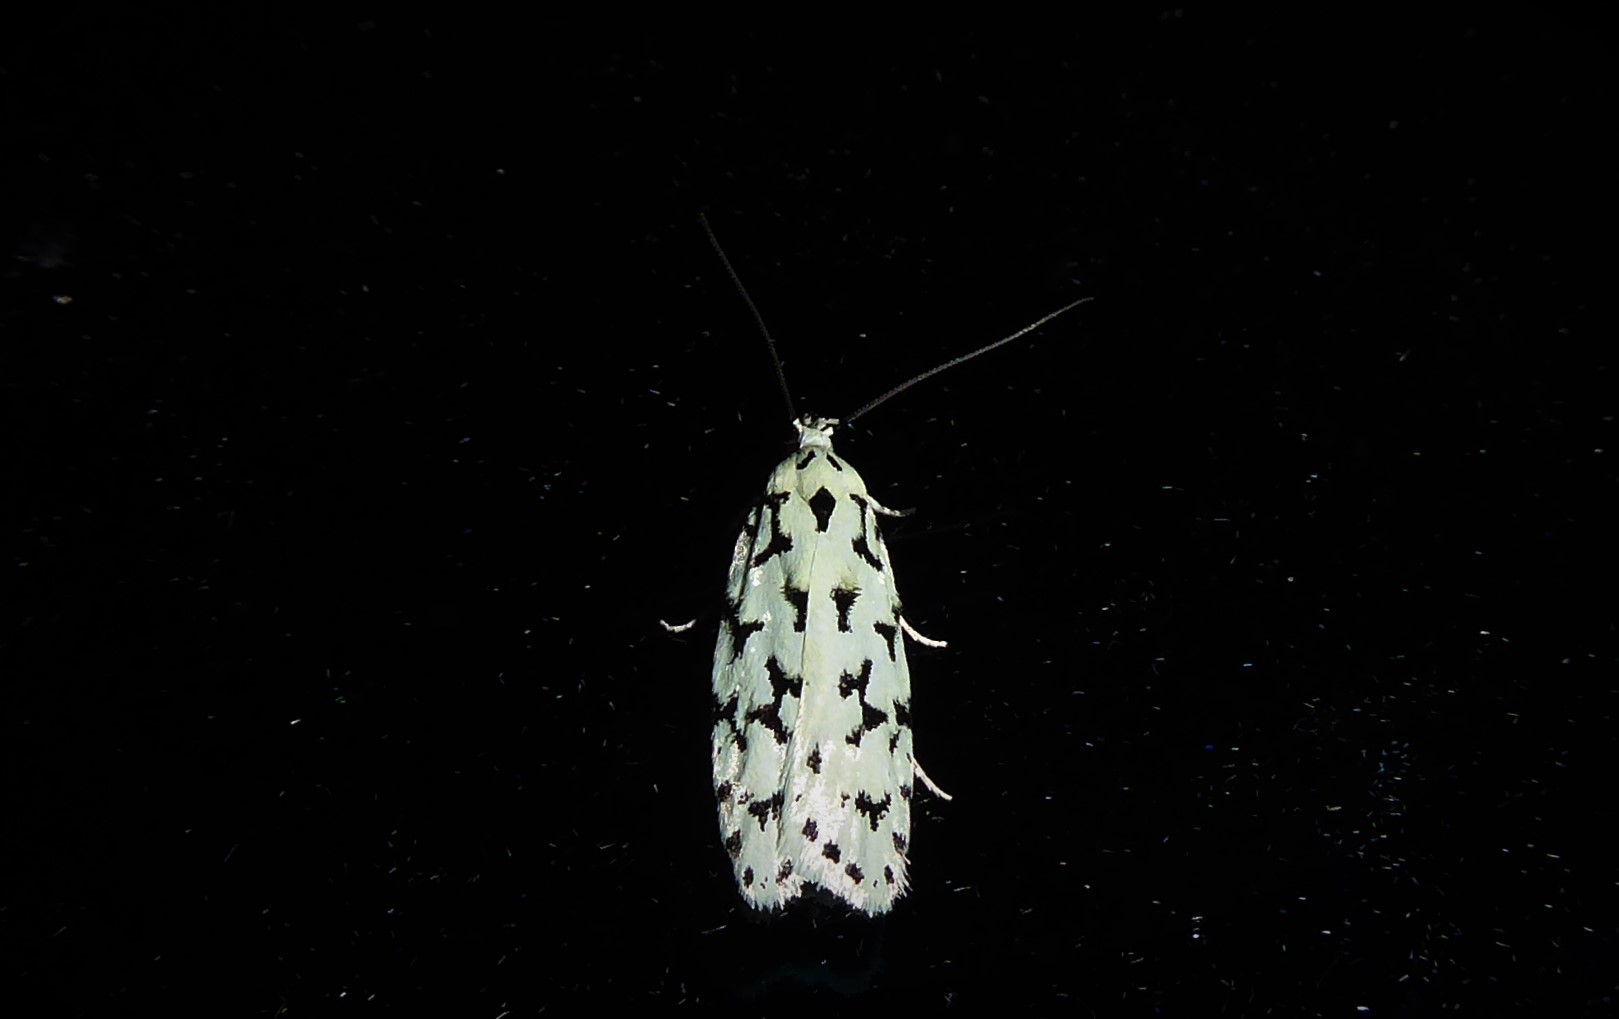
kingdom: Animalia
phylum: Arthropoda
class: Insecta
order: Lepidoptera
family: Oecophoridae
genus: Izatha
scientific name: Izatha huttoni
